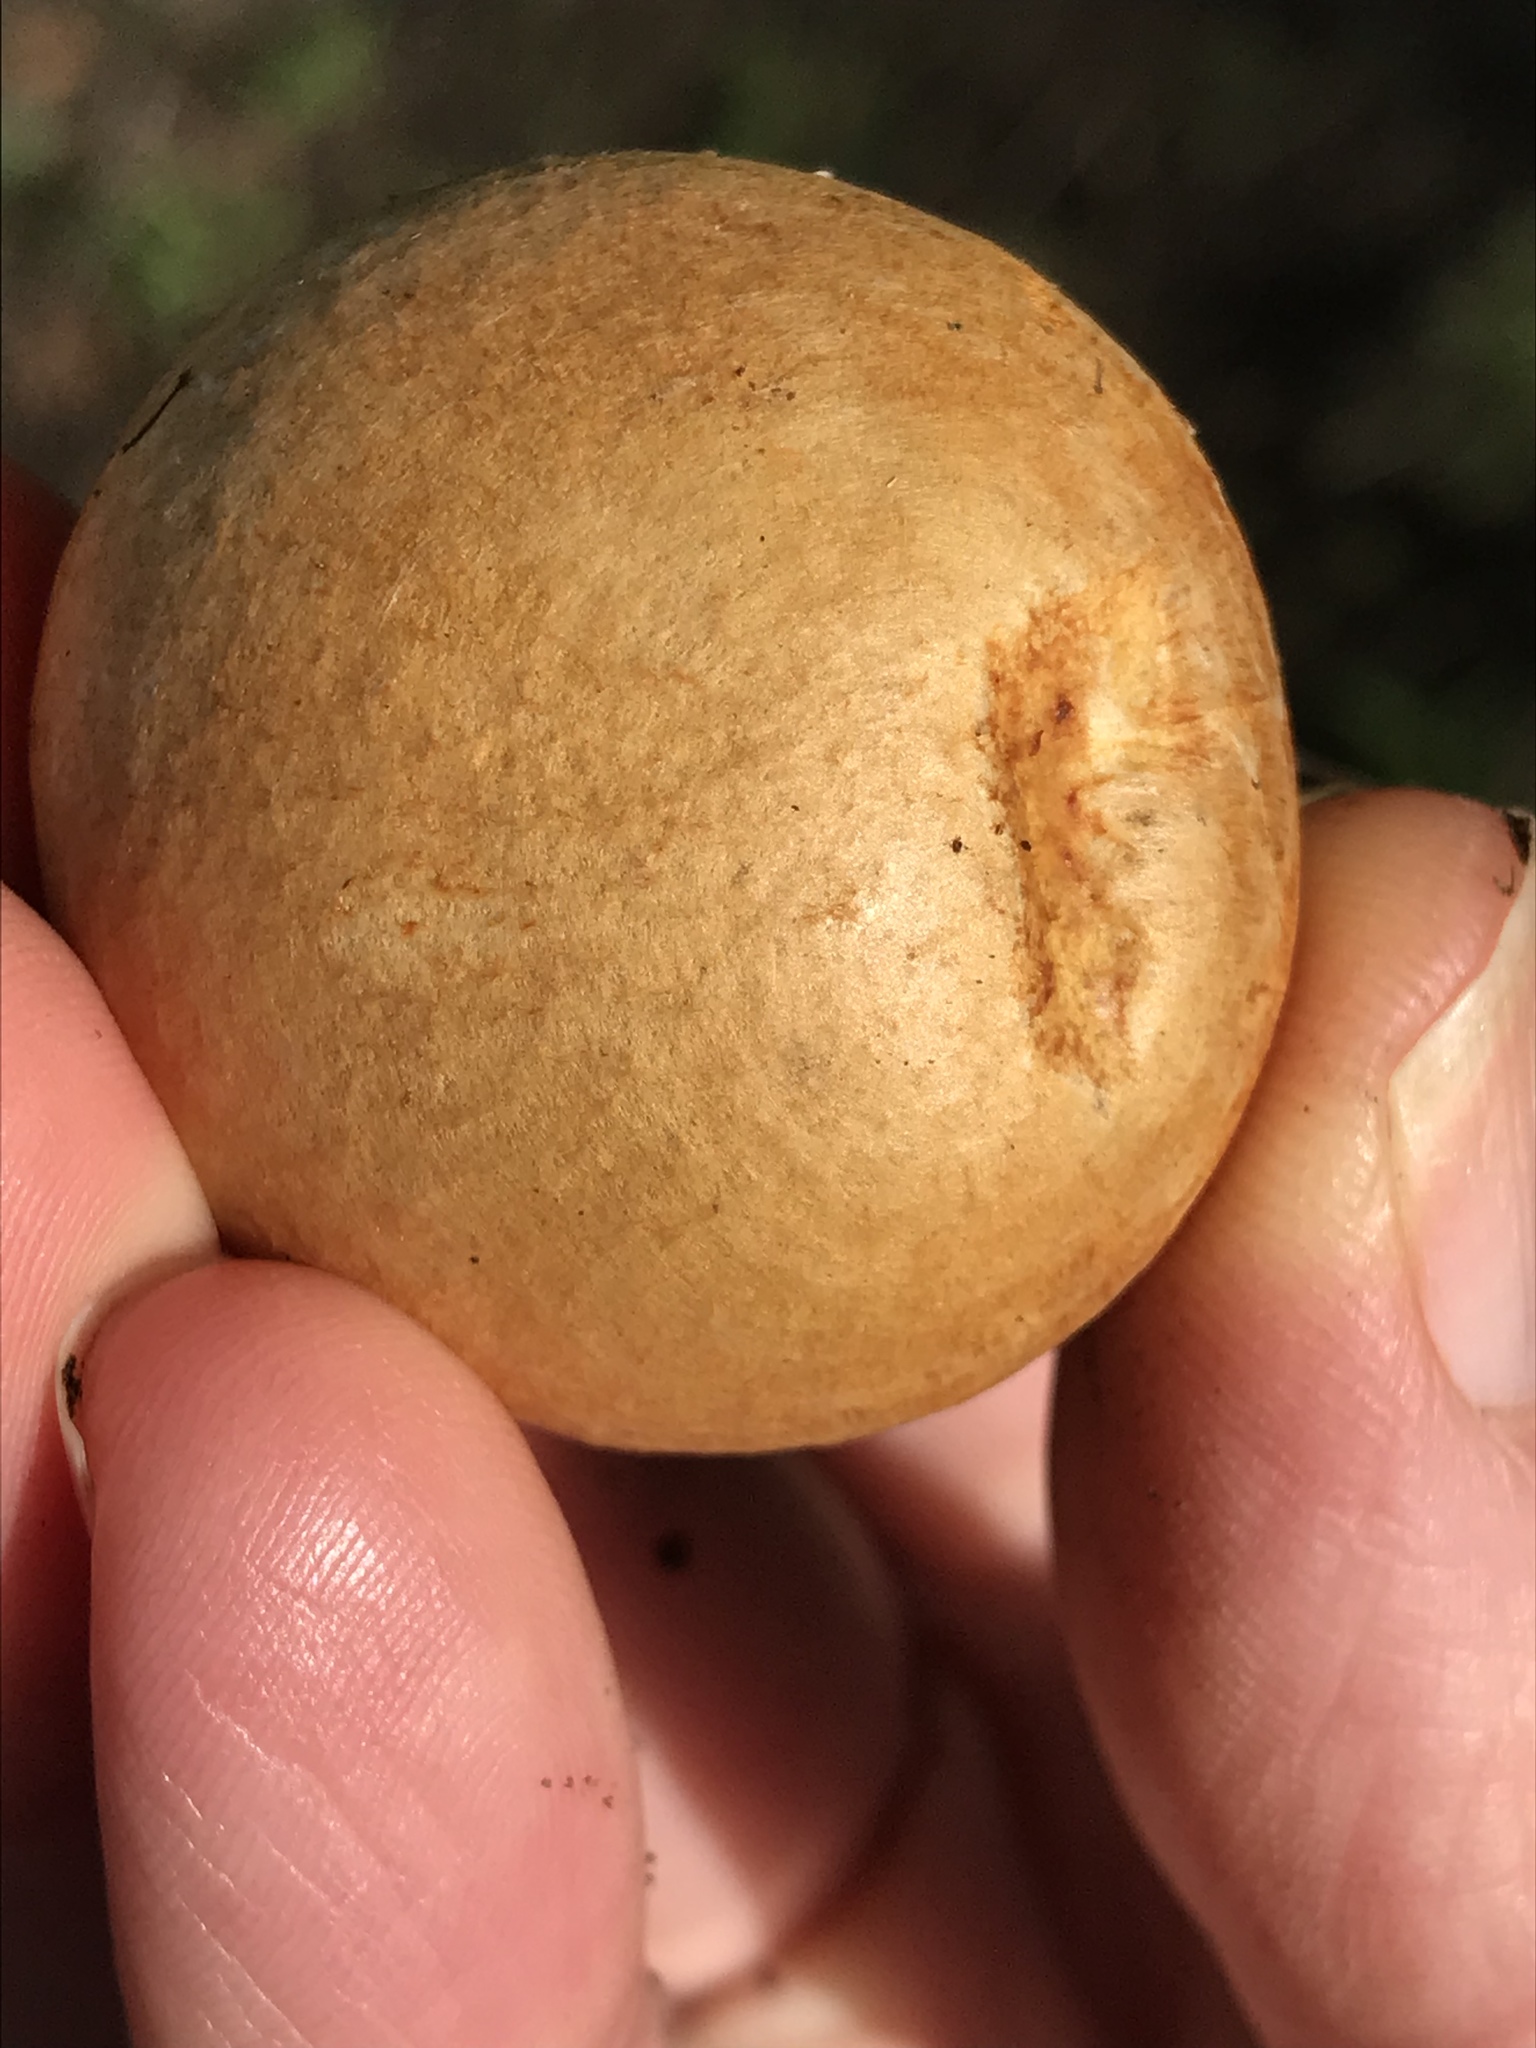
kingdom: Fungi
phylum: Basidiomycota
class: Agaricomycetes
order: Agaricales
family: Hymenogastraceae
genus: Gymnopilus
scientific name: Gymnopilus ventricosus
